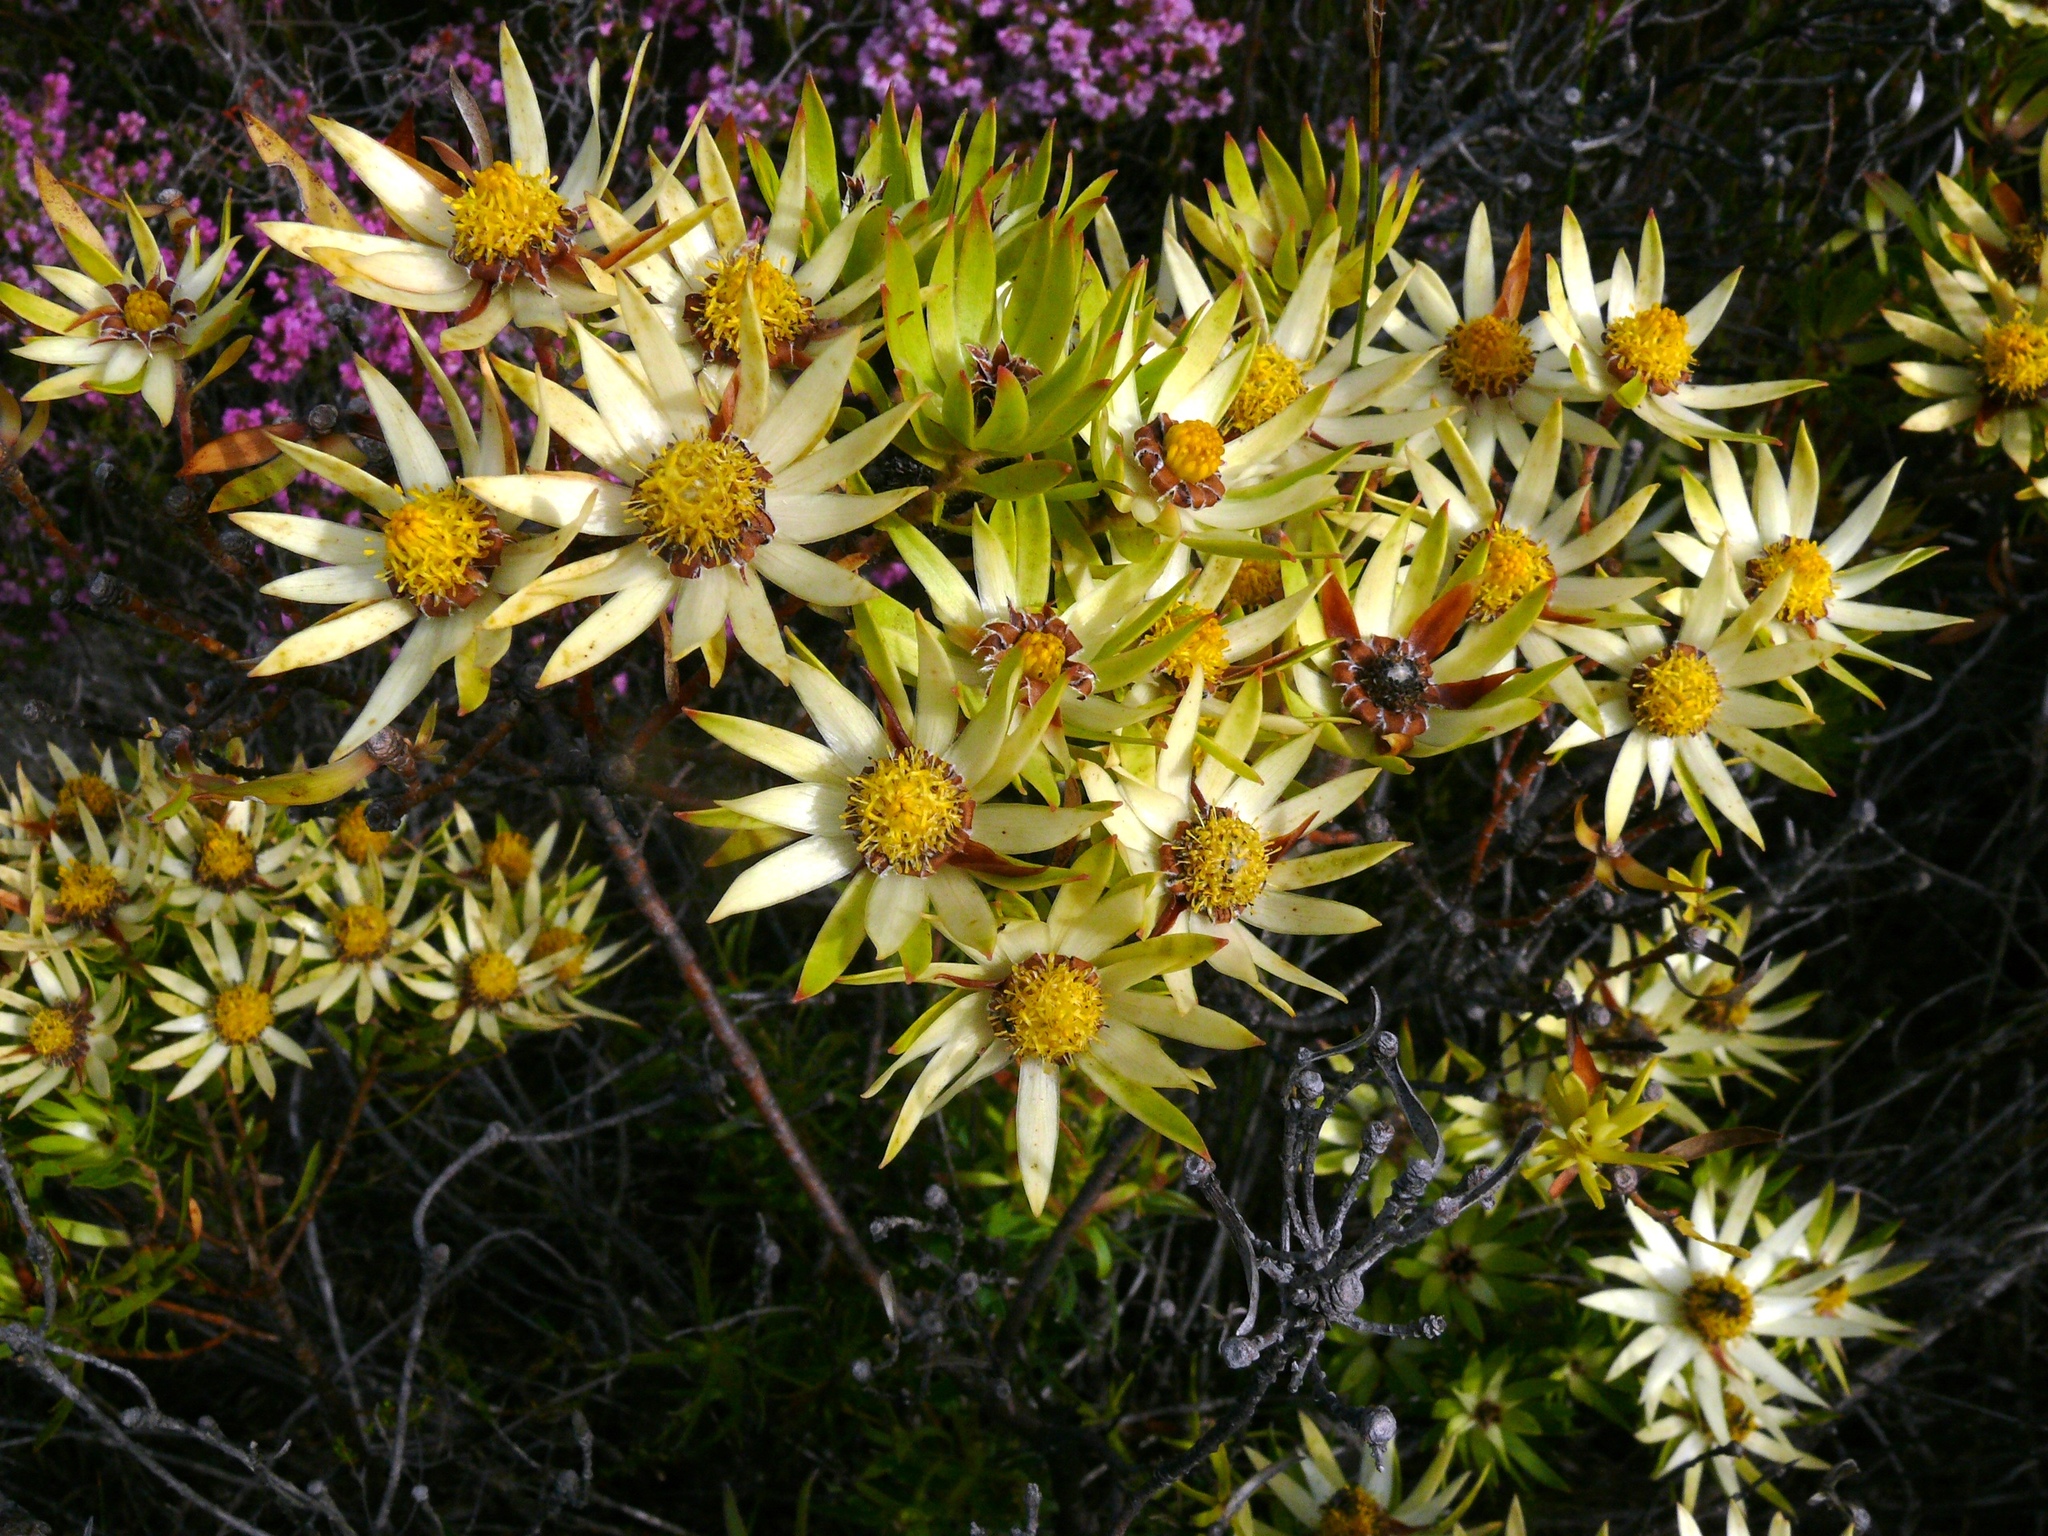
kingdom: Plantae
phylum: Tracheophyta
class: Magnoliopsida
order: Proteales
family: Proteaceae
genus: Leucadendron
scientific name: Leucadendron spissifolium
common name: Spear-leaf conebush
